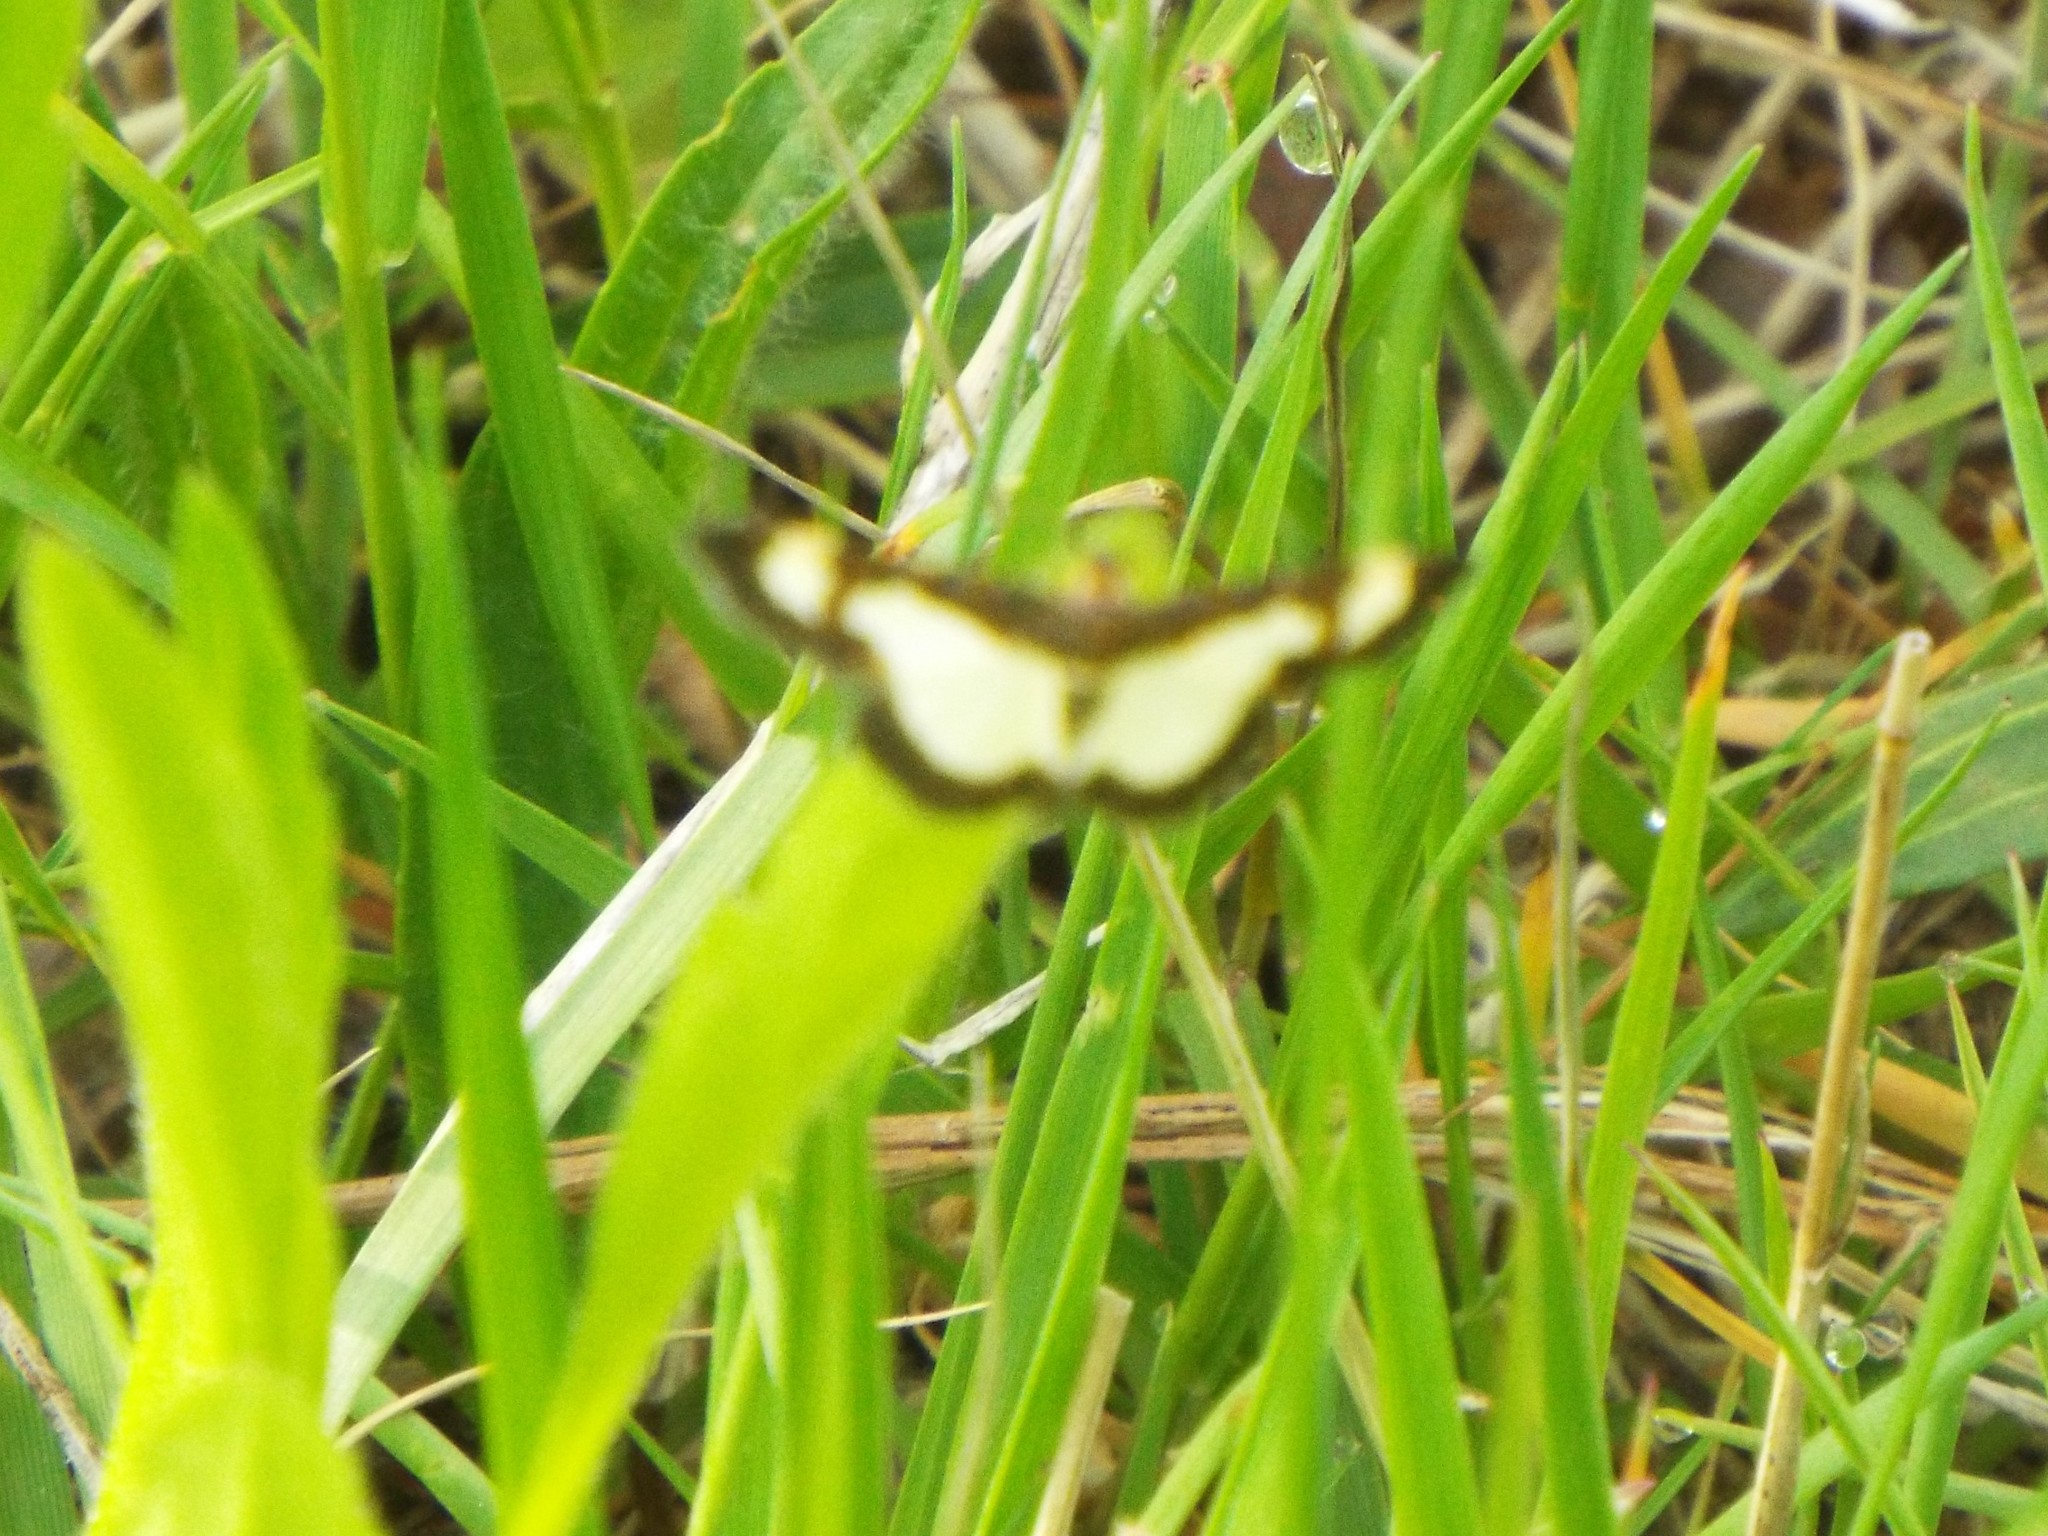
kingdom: Animalia
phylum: Arthropoda
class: Insecta
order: Lepidoptera
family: Geometridae
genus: Heliomata
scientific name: Heliomata cycladata
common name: Common spring moth
